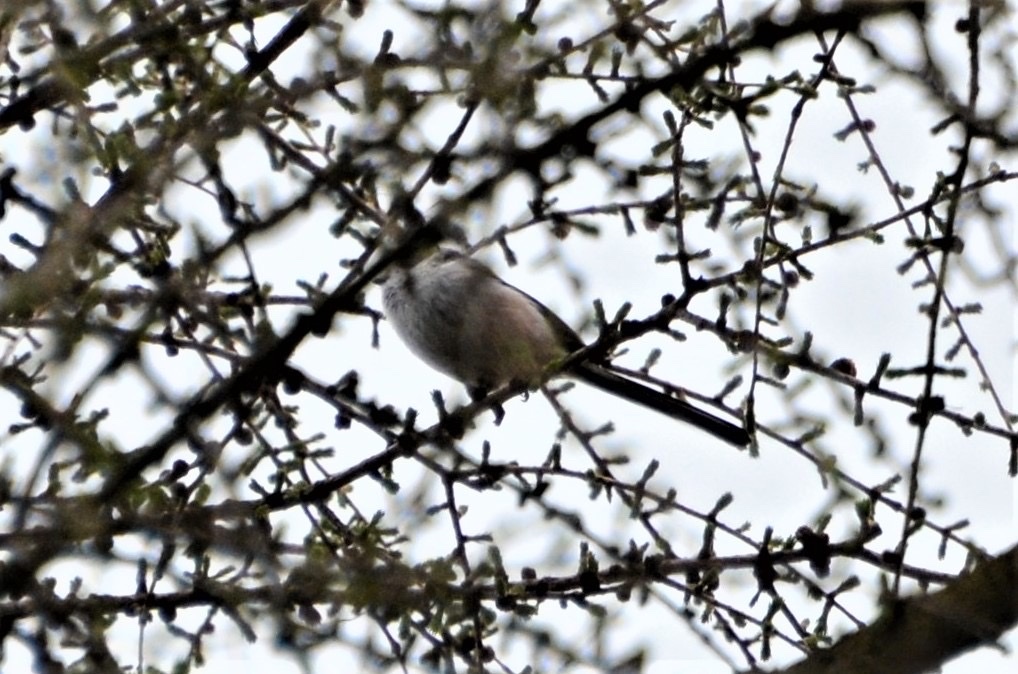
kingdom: Animalia
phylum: Chordata
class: Aves
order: Passeriformes
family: Aegithalidae
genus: Aegithalos
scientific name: Aegithalos caudatus
